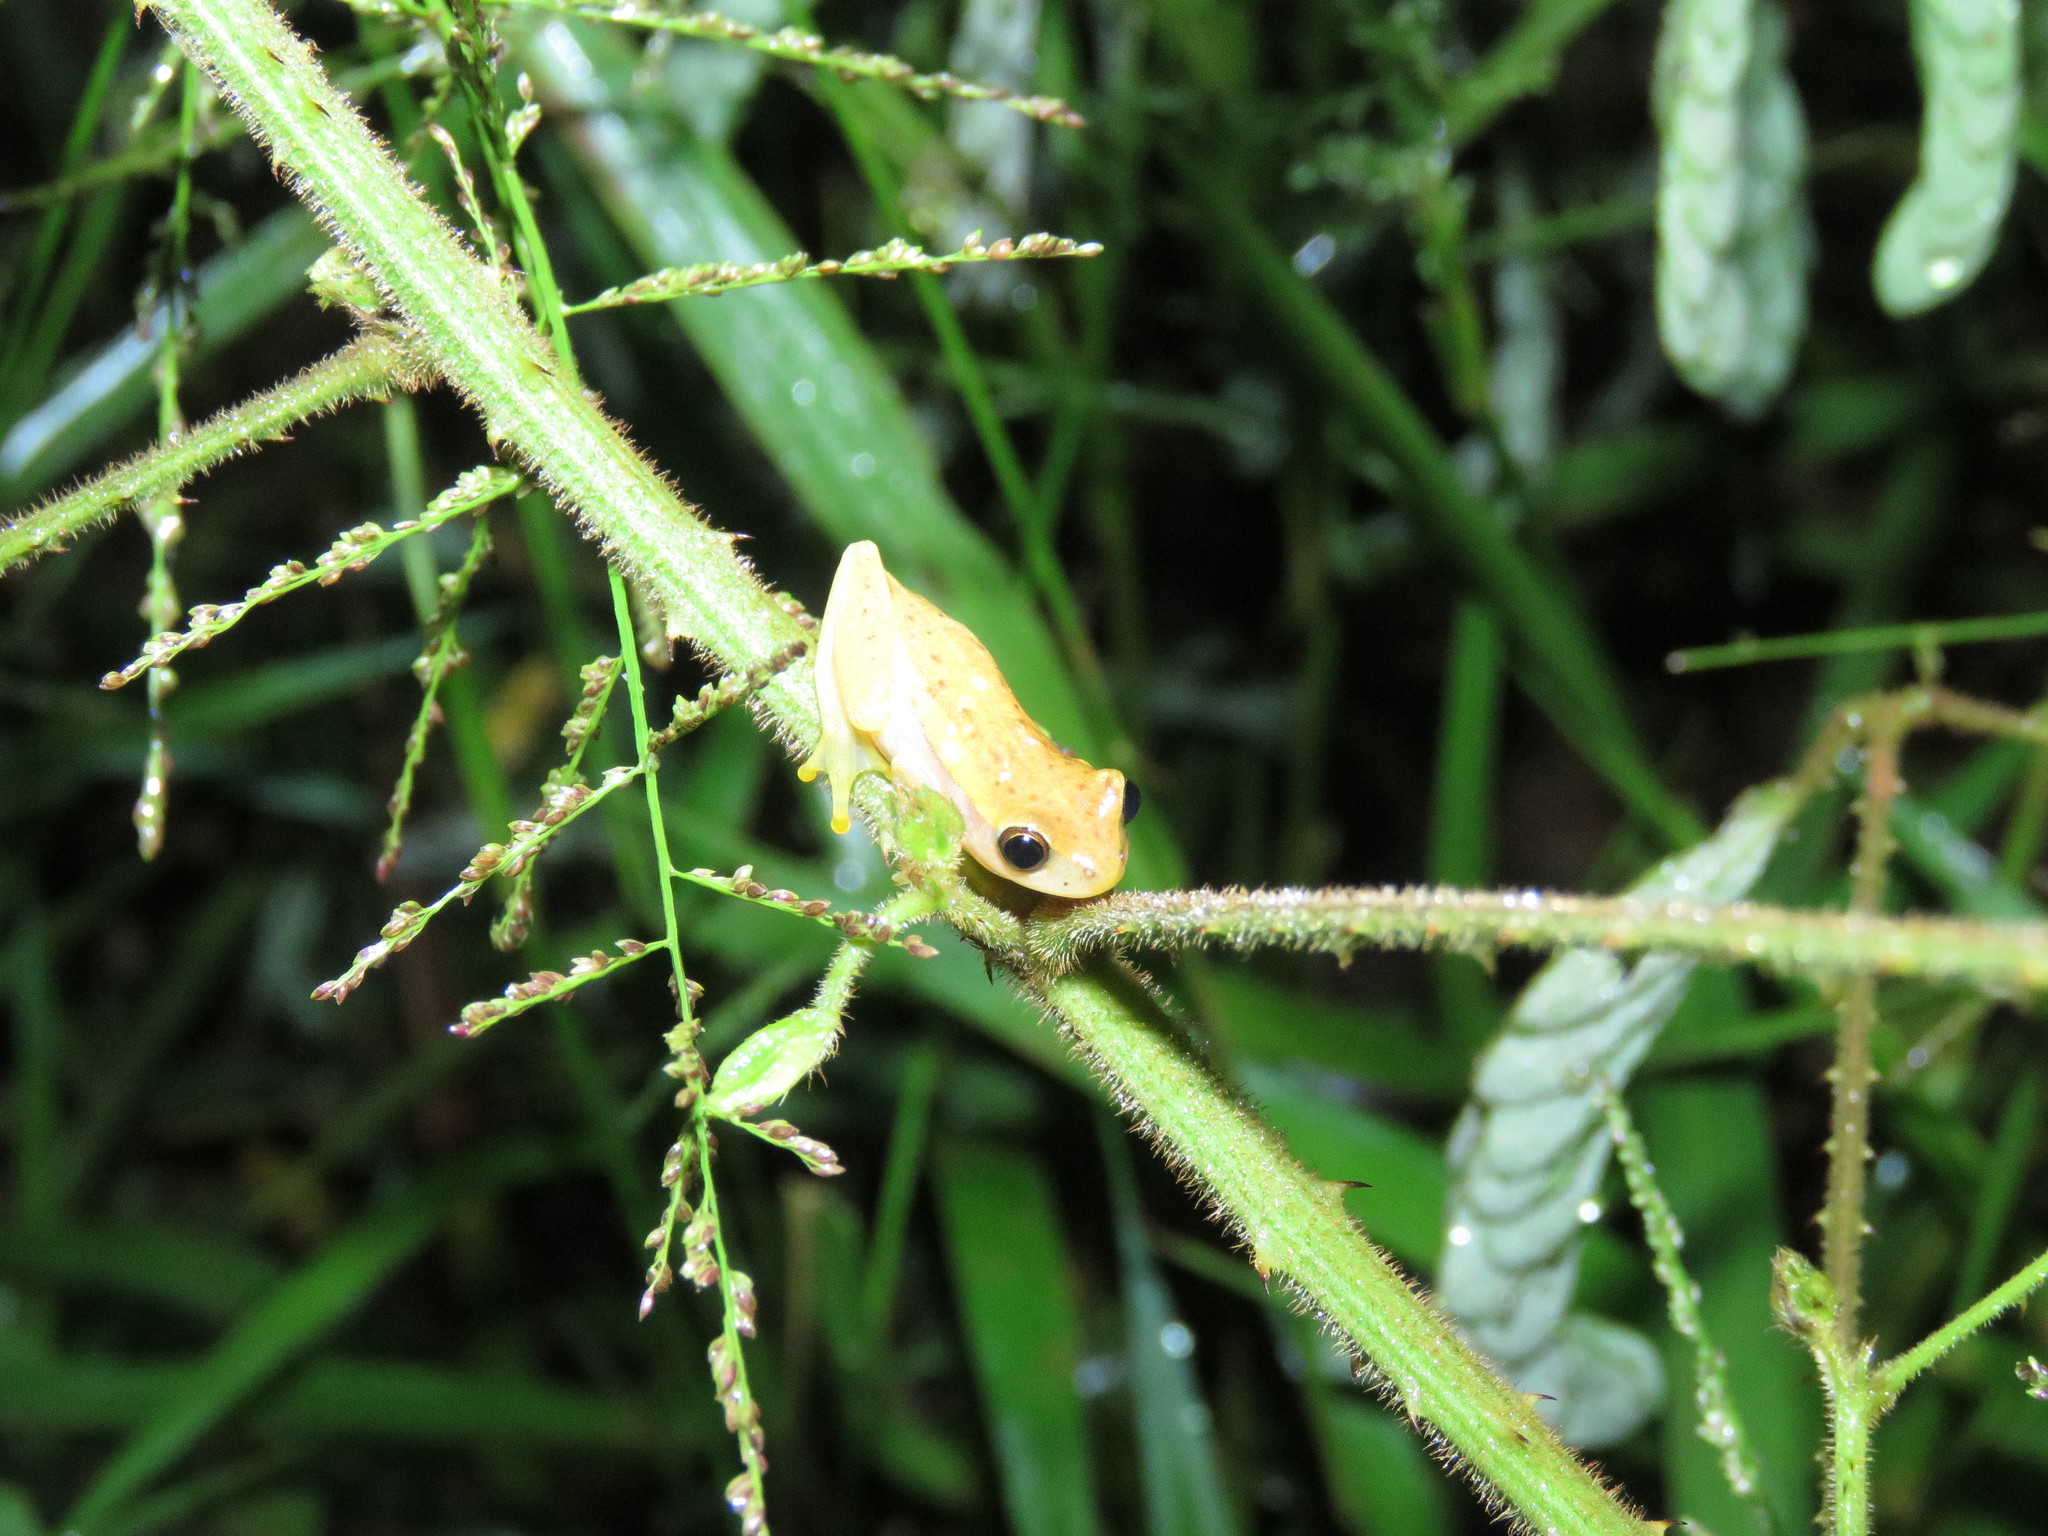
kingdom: Animalia
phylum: Chordata
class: Amphibia
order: Anura
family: Hylidae
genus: Dendropsophus
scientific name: Dendropsophus walfordi
